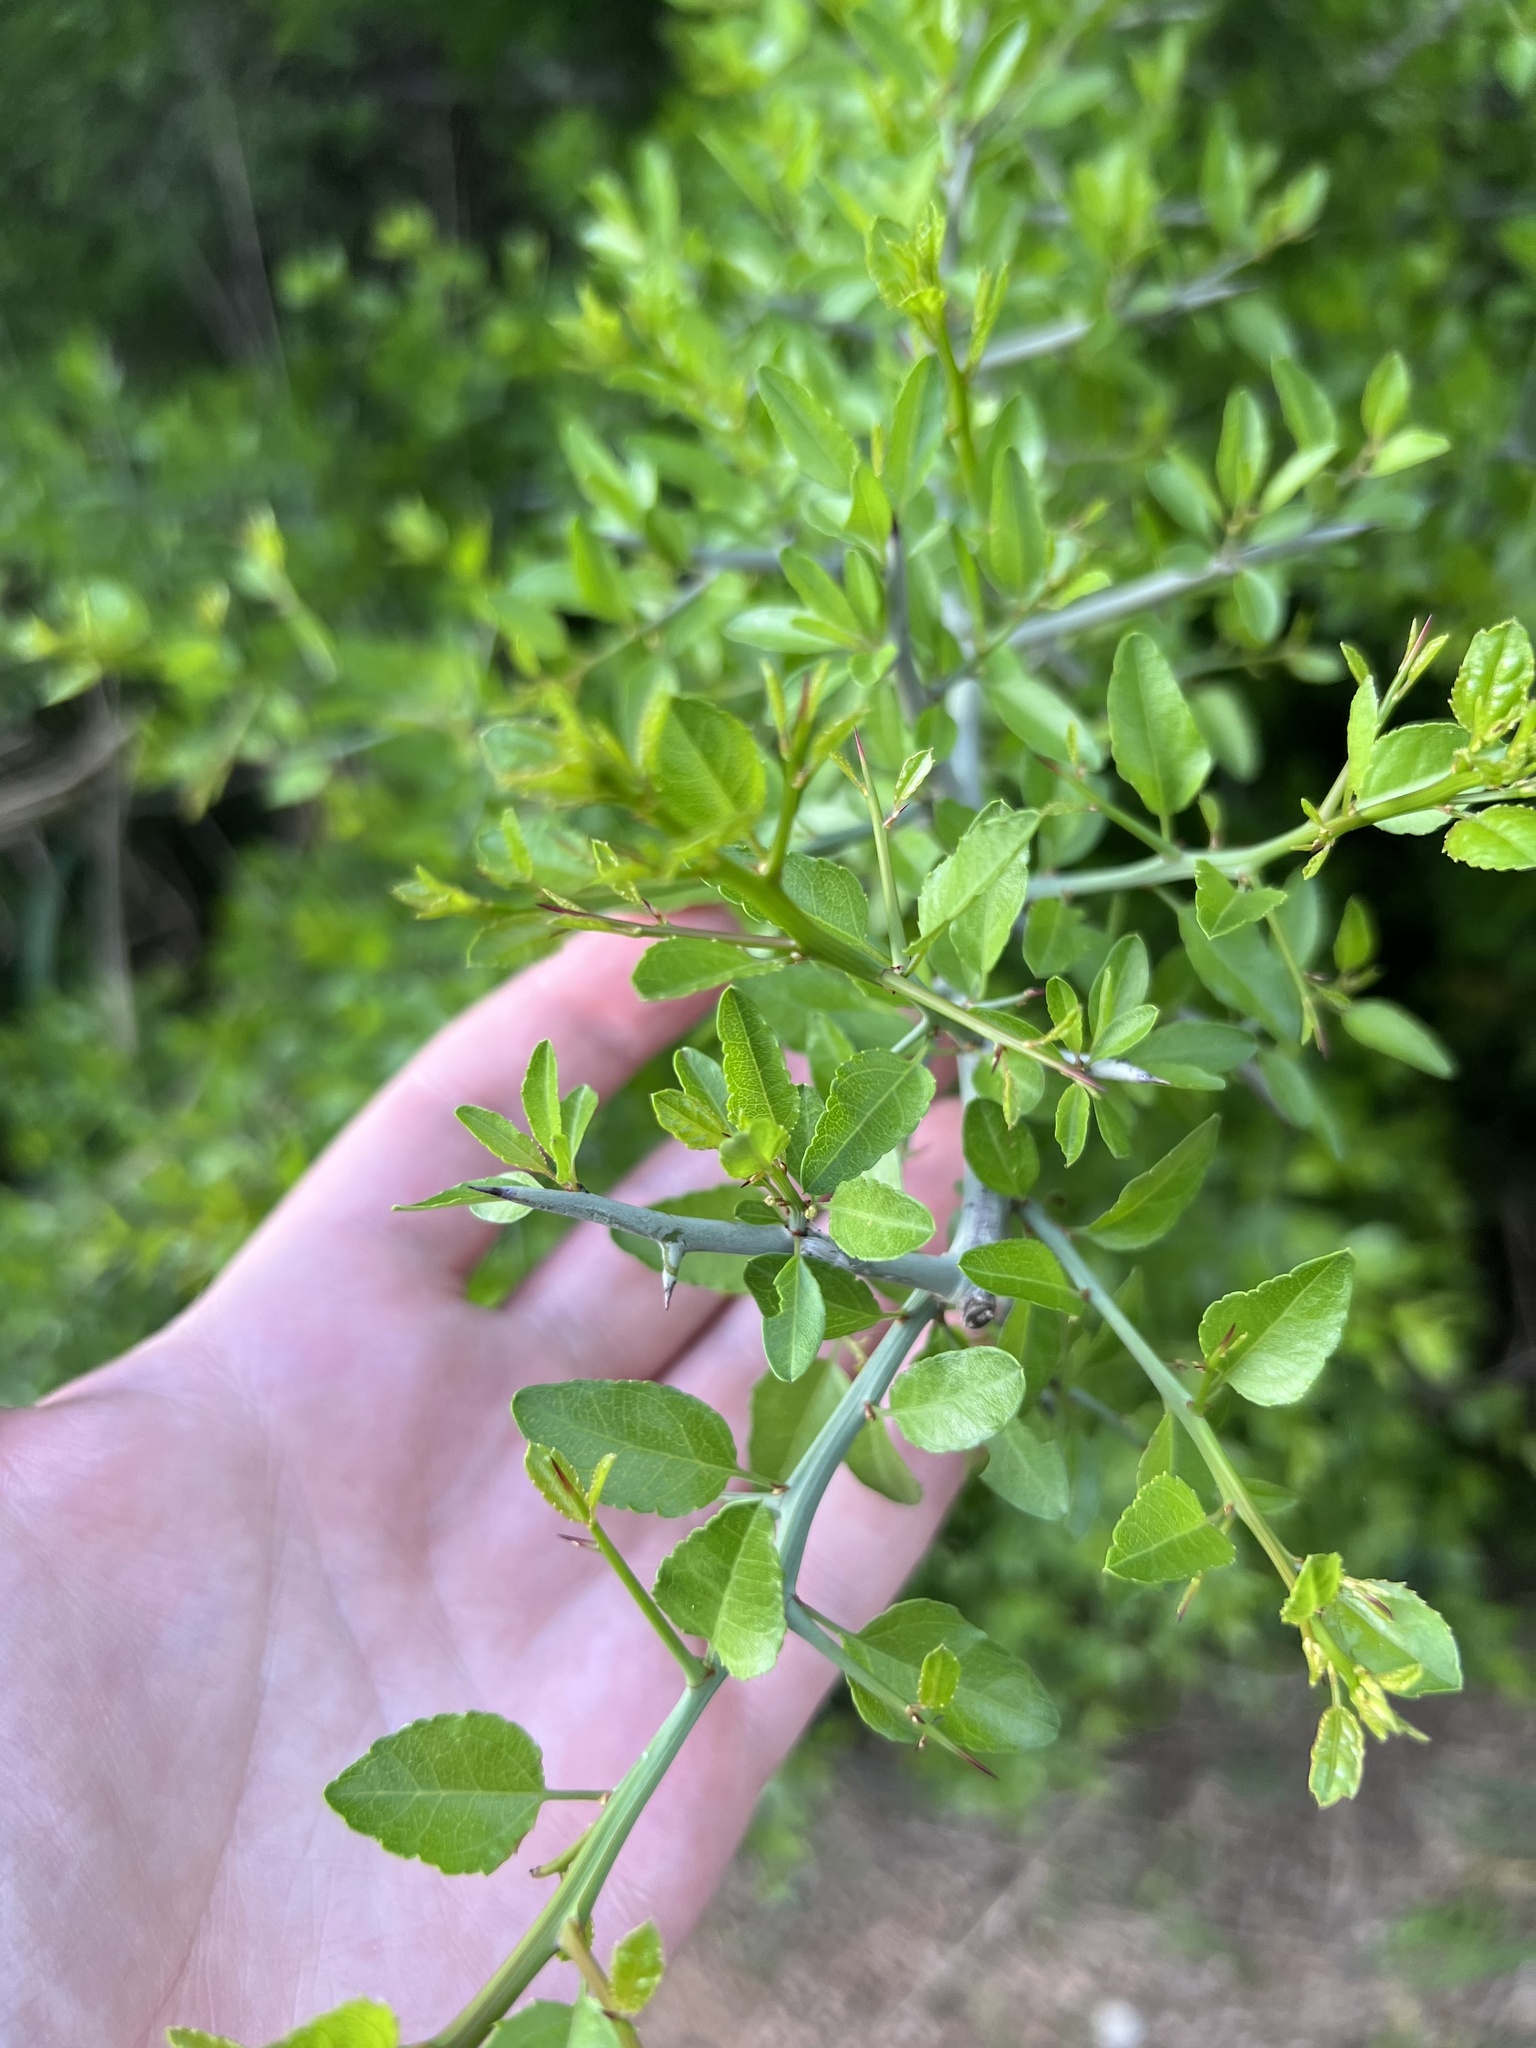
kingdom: Plantae
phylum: Tracheophyta
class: Magnoliopsida
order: Rosales
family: Rhamnaceae
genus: Sarcomphalus
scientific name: Sarcomphalus obtusifolius
